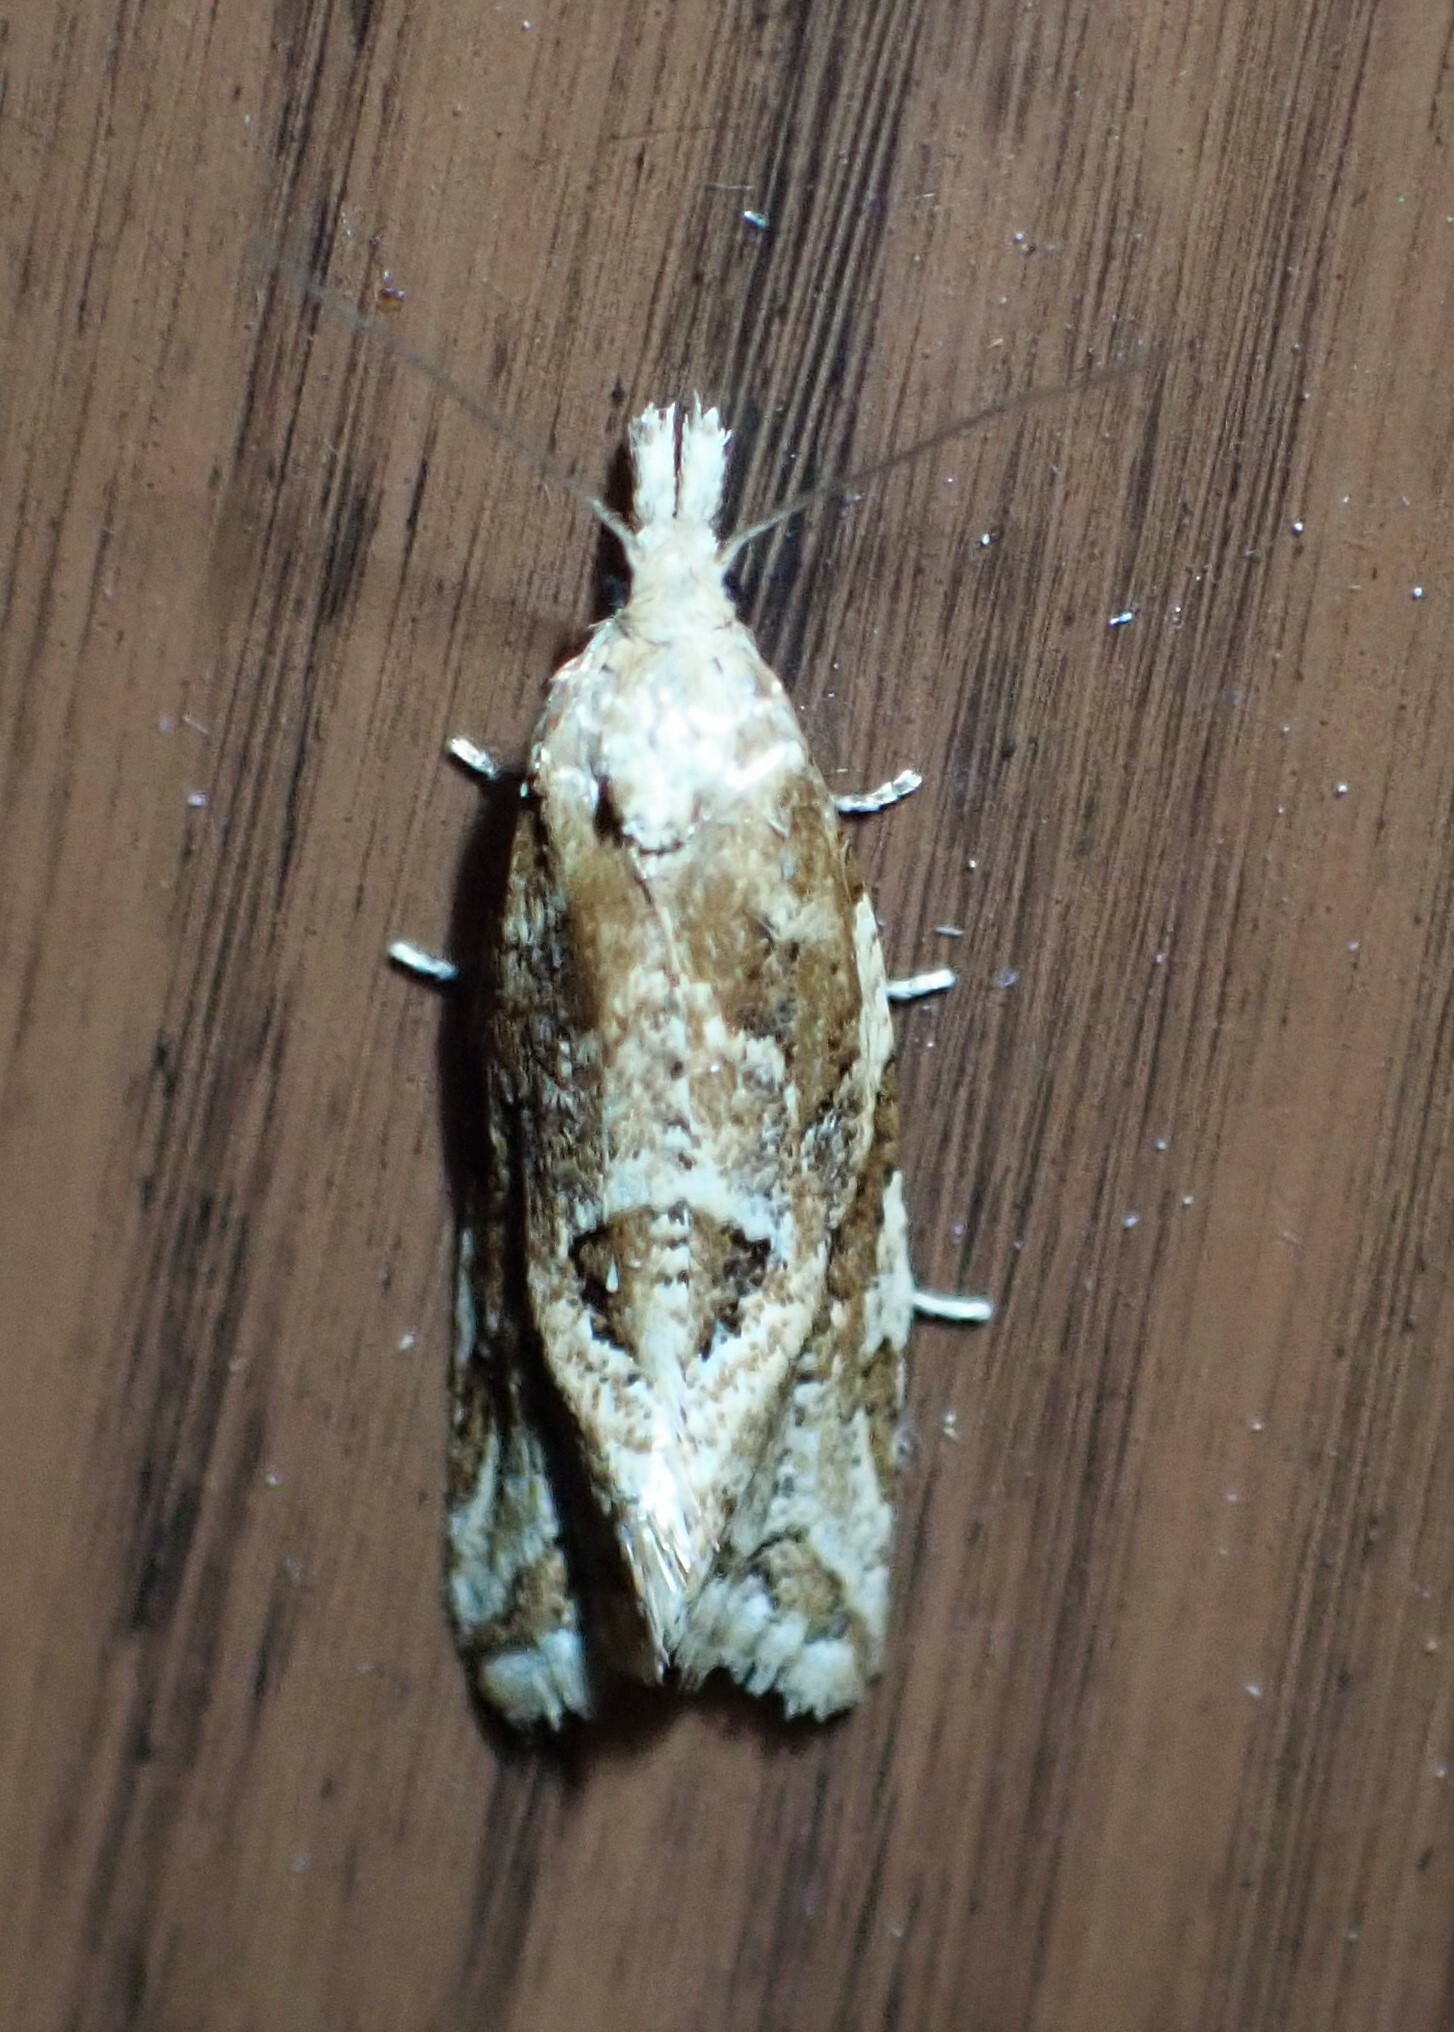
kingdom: Animalia
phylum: Arthropoda
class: Insecta
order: Lepidoptera
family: Tortricidae
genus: Aethes
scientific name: Aethes sexdentata
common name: Six-toothed aethes
